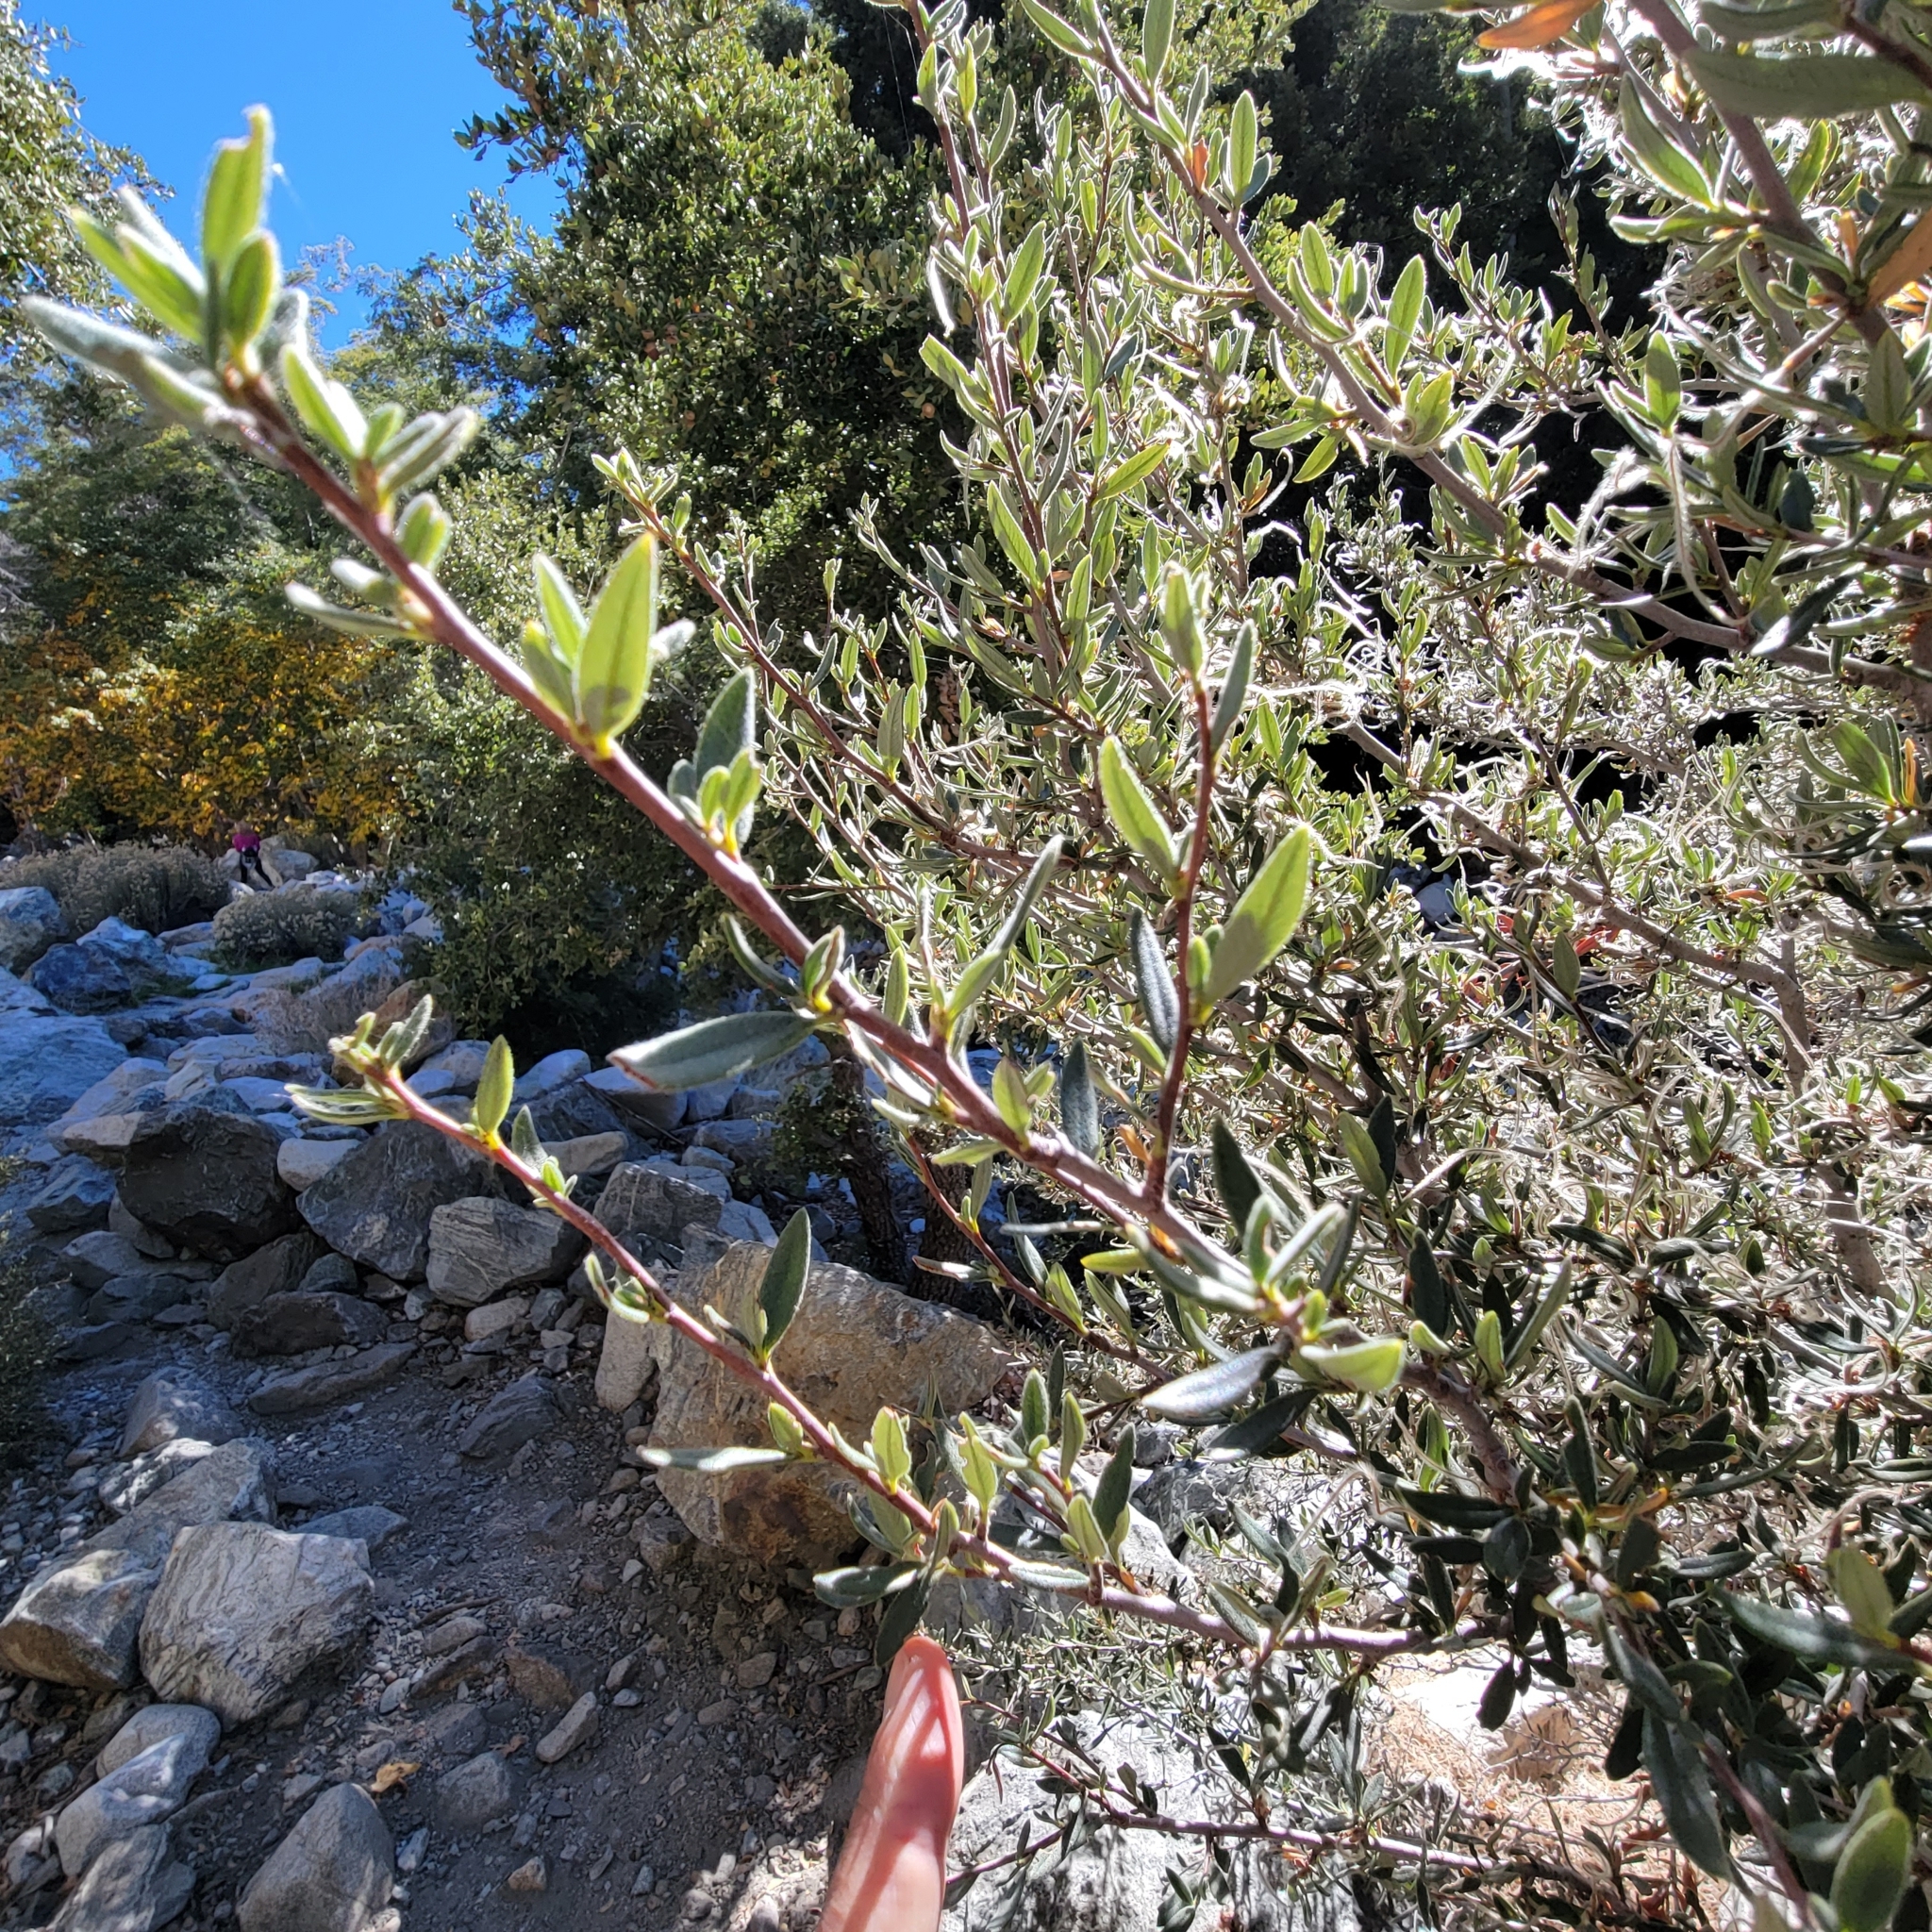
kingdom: Plantae
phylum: Tracheophyta
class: Magnoliopsida
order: Rosales
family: Rosaceae
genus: Cercocarpus
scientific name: Cercocarpus ledifolius
